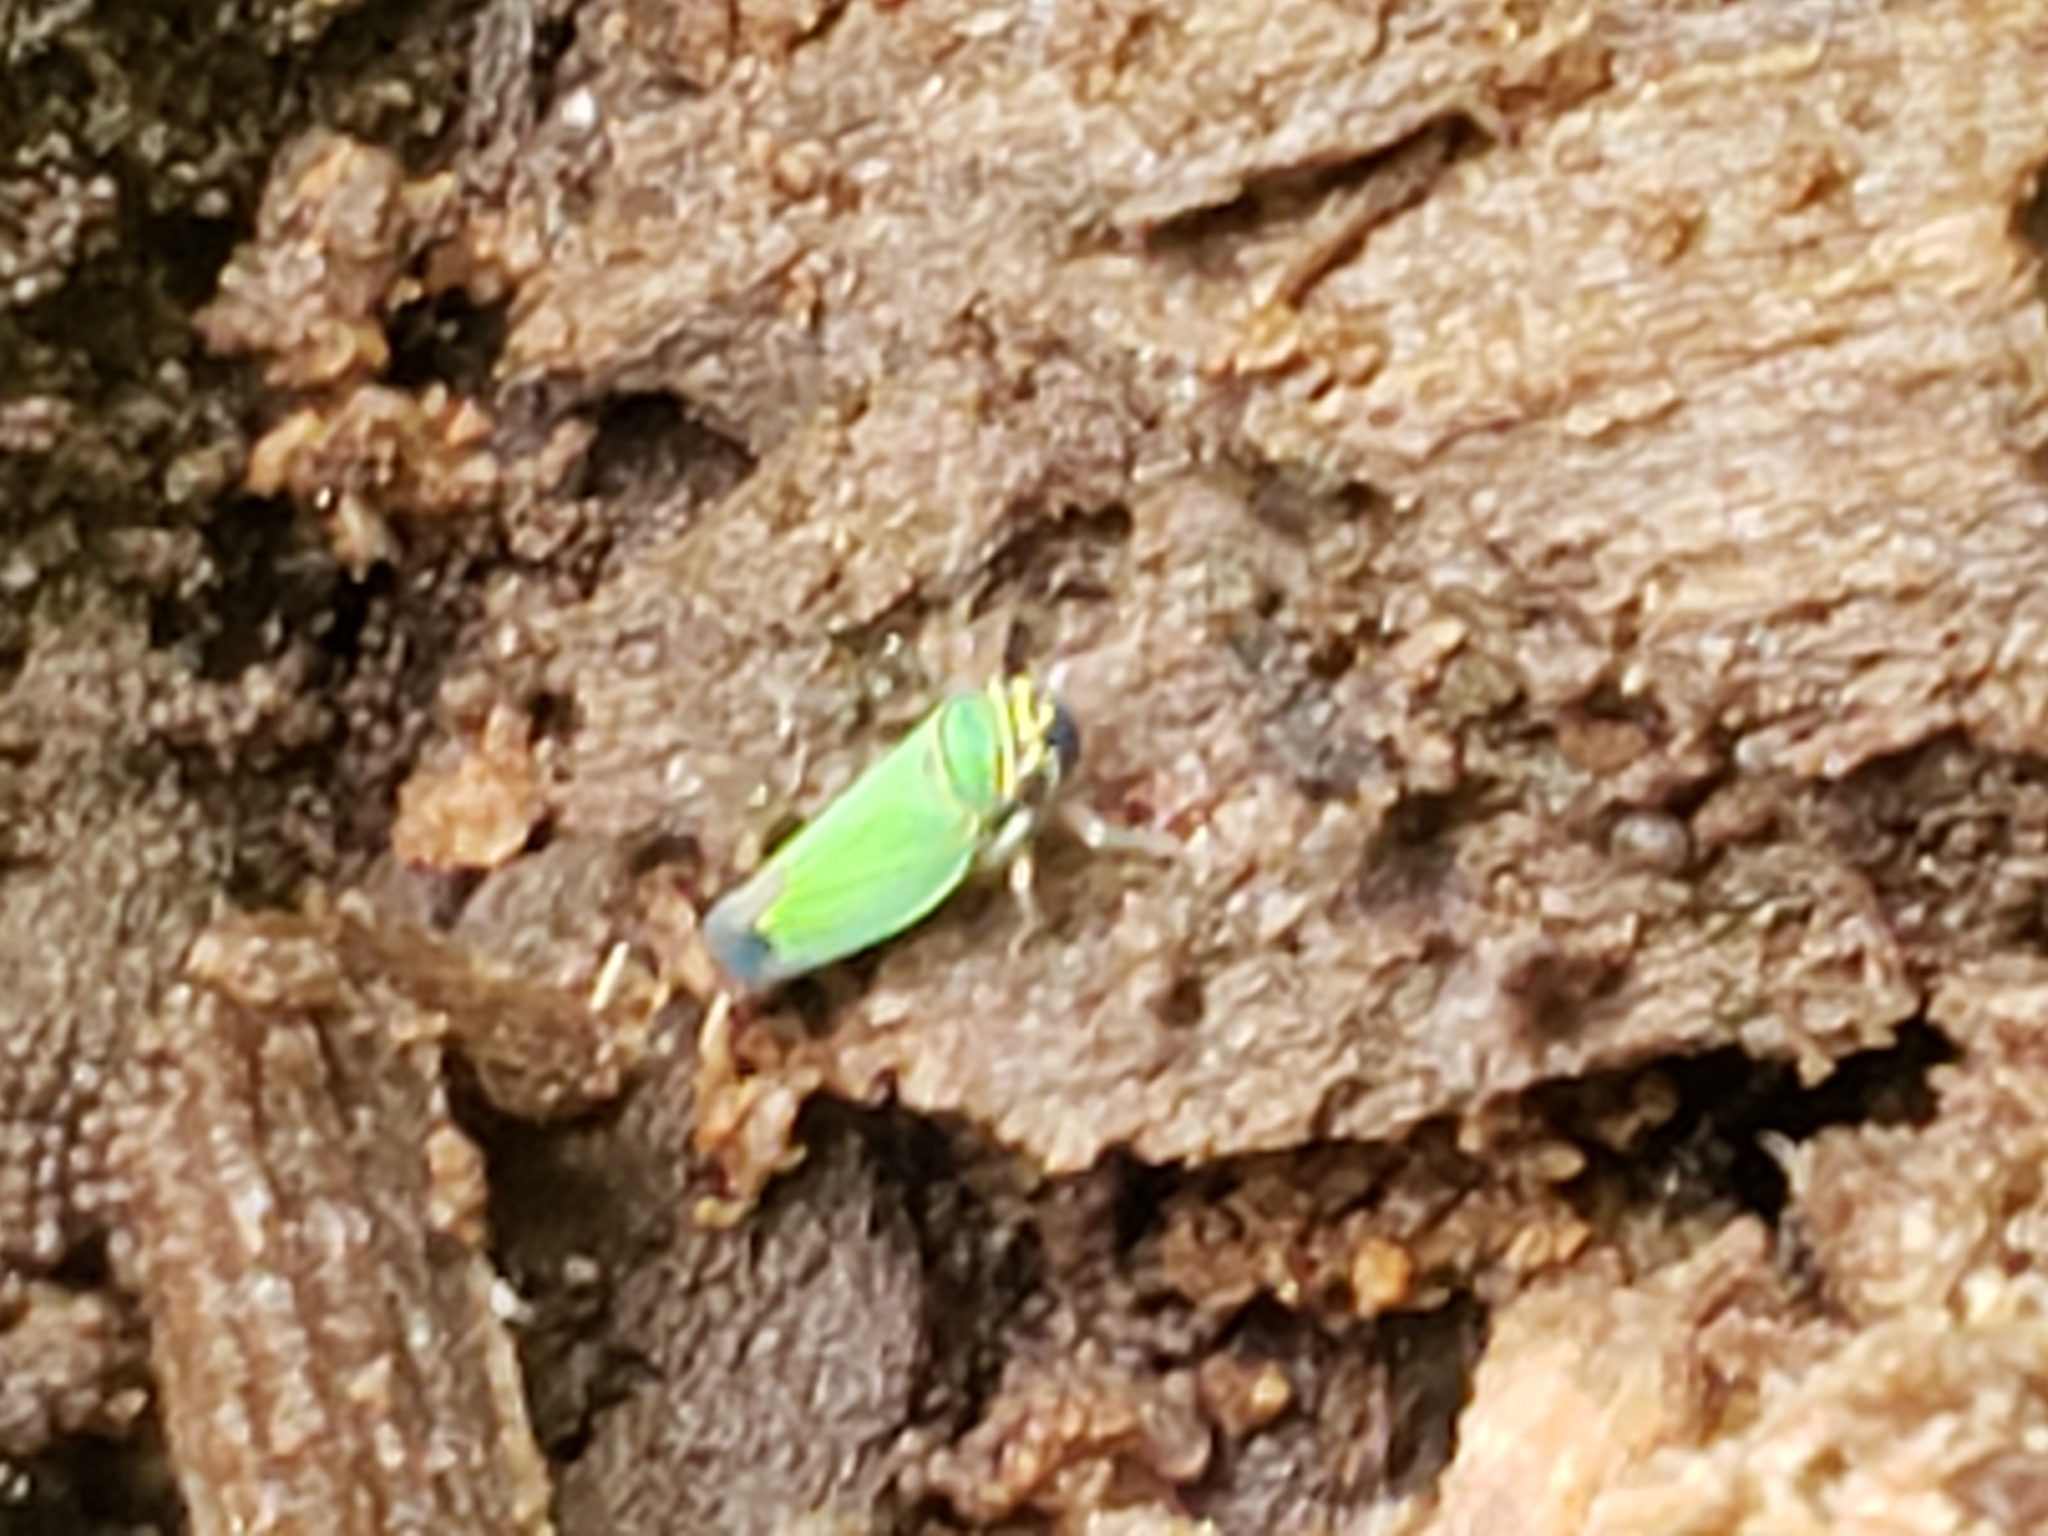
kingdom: Animalia
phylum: Arthropoda
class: Insecta
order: Hemiptera
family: Cicadellidae
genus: Tylozygus
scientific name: Tylozygus geometricus
